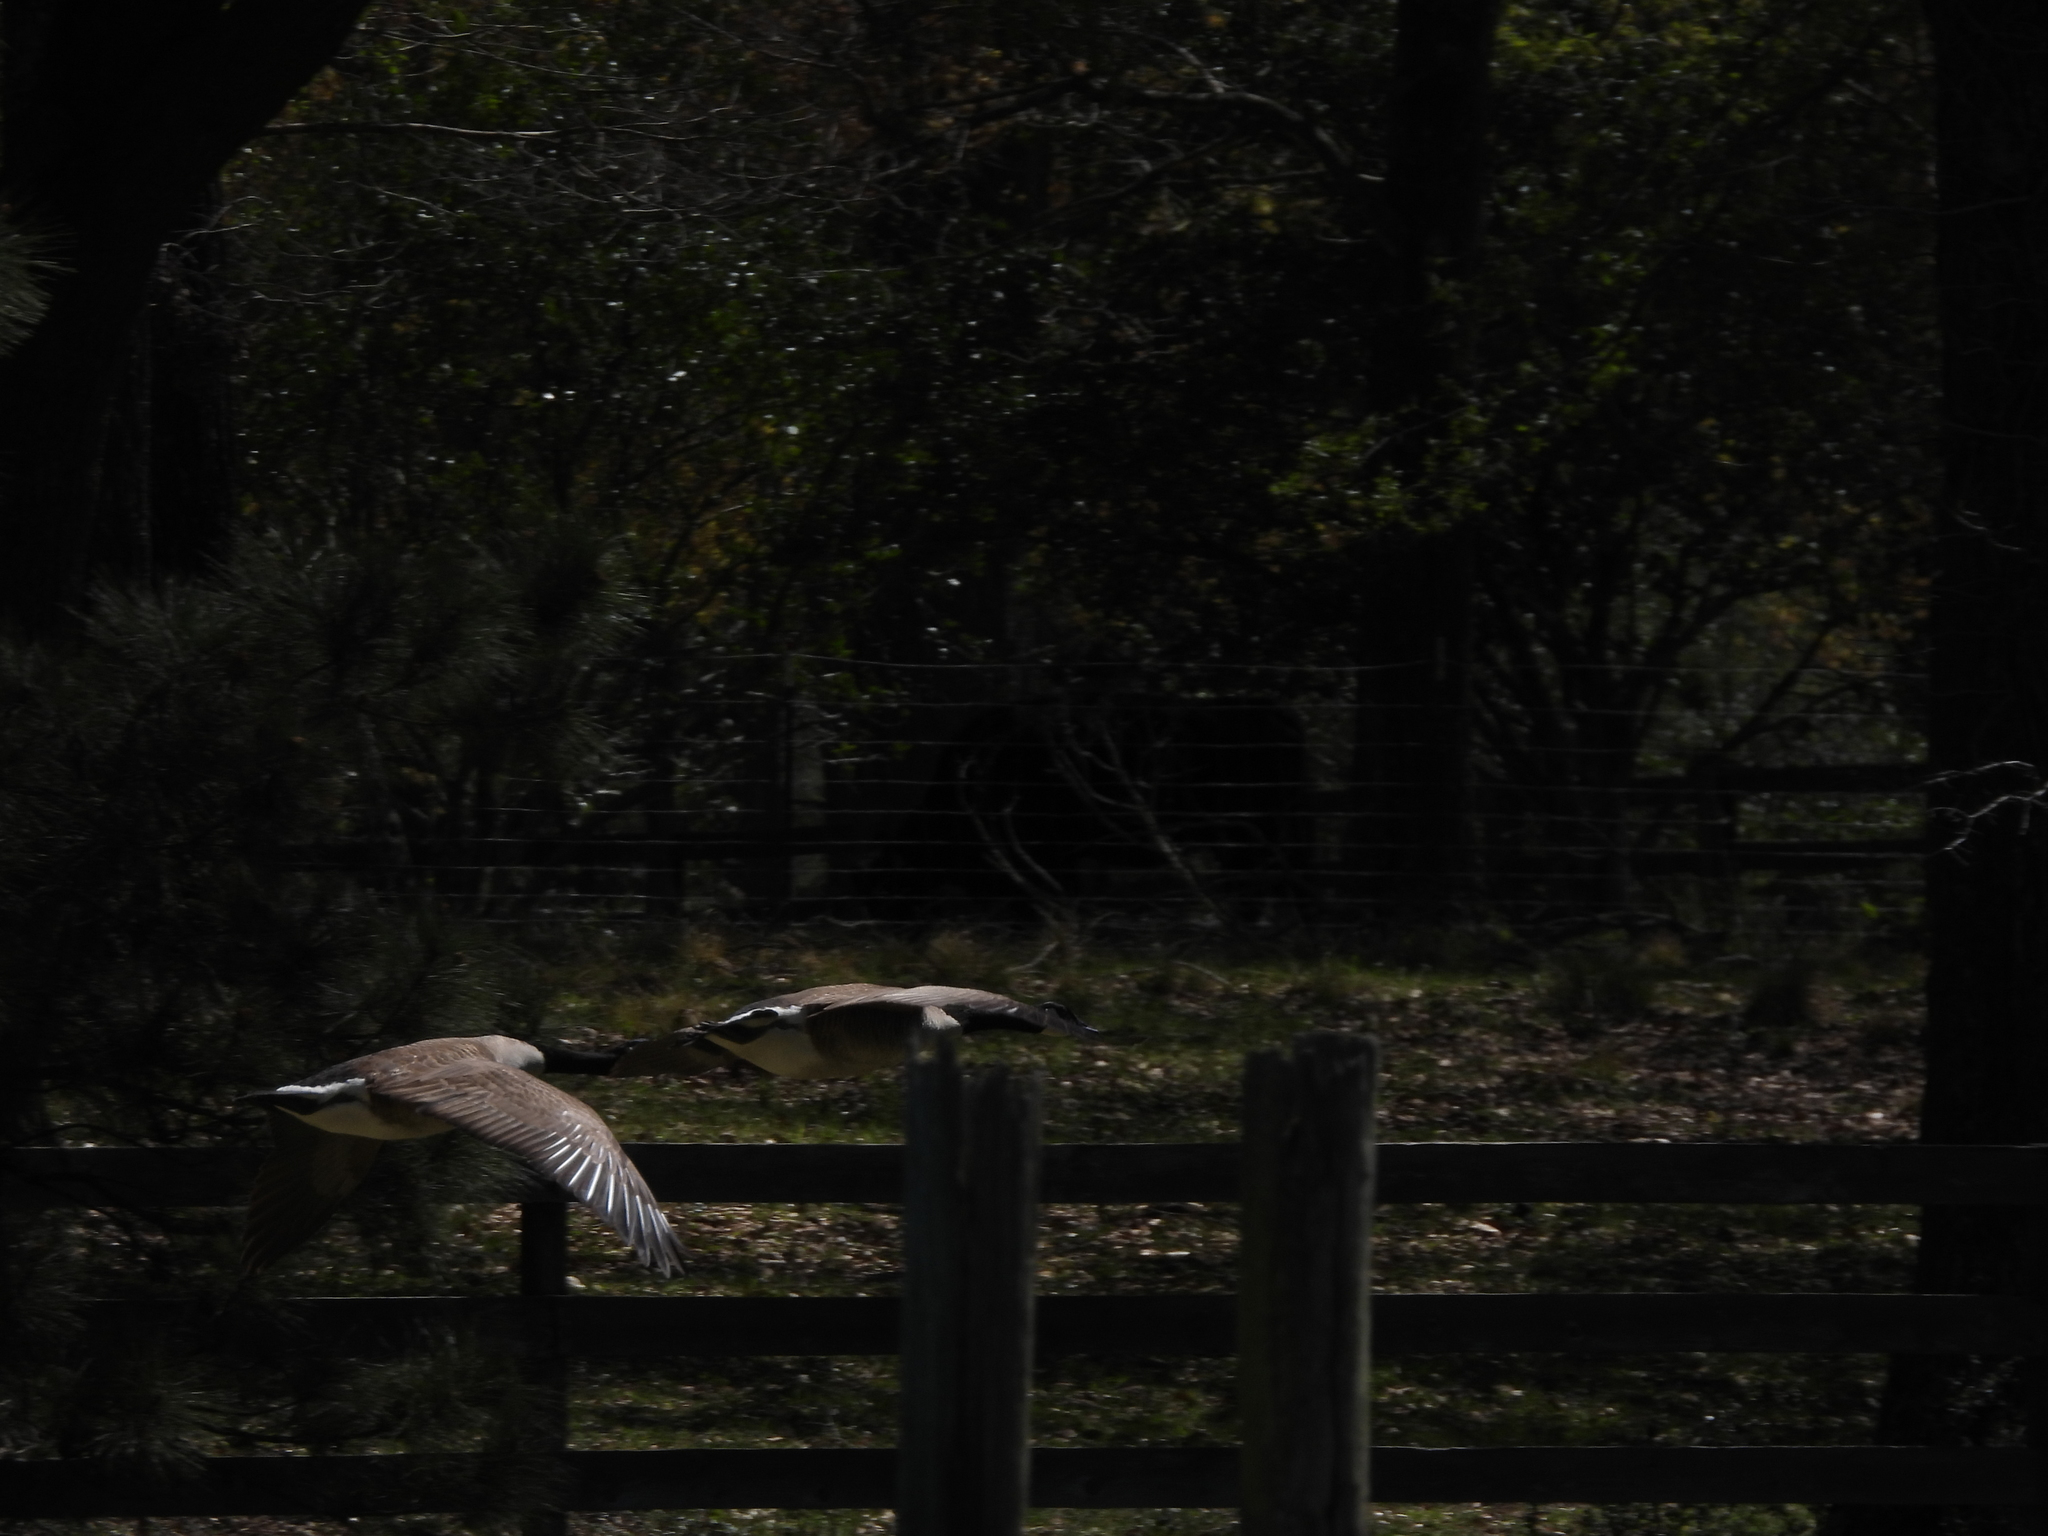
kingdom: Animalia
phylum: Chordata
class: Aves
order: Anseriformes
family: Anatidae
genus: Branta
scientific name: Branta canadensis
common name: Canada goose
